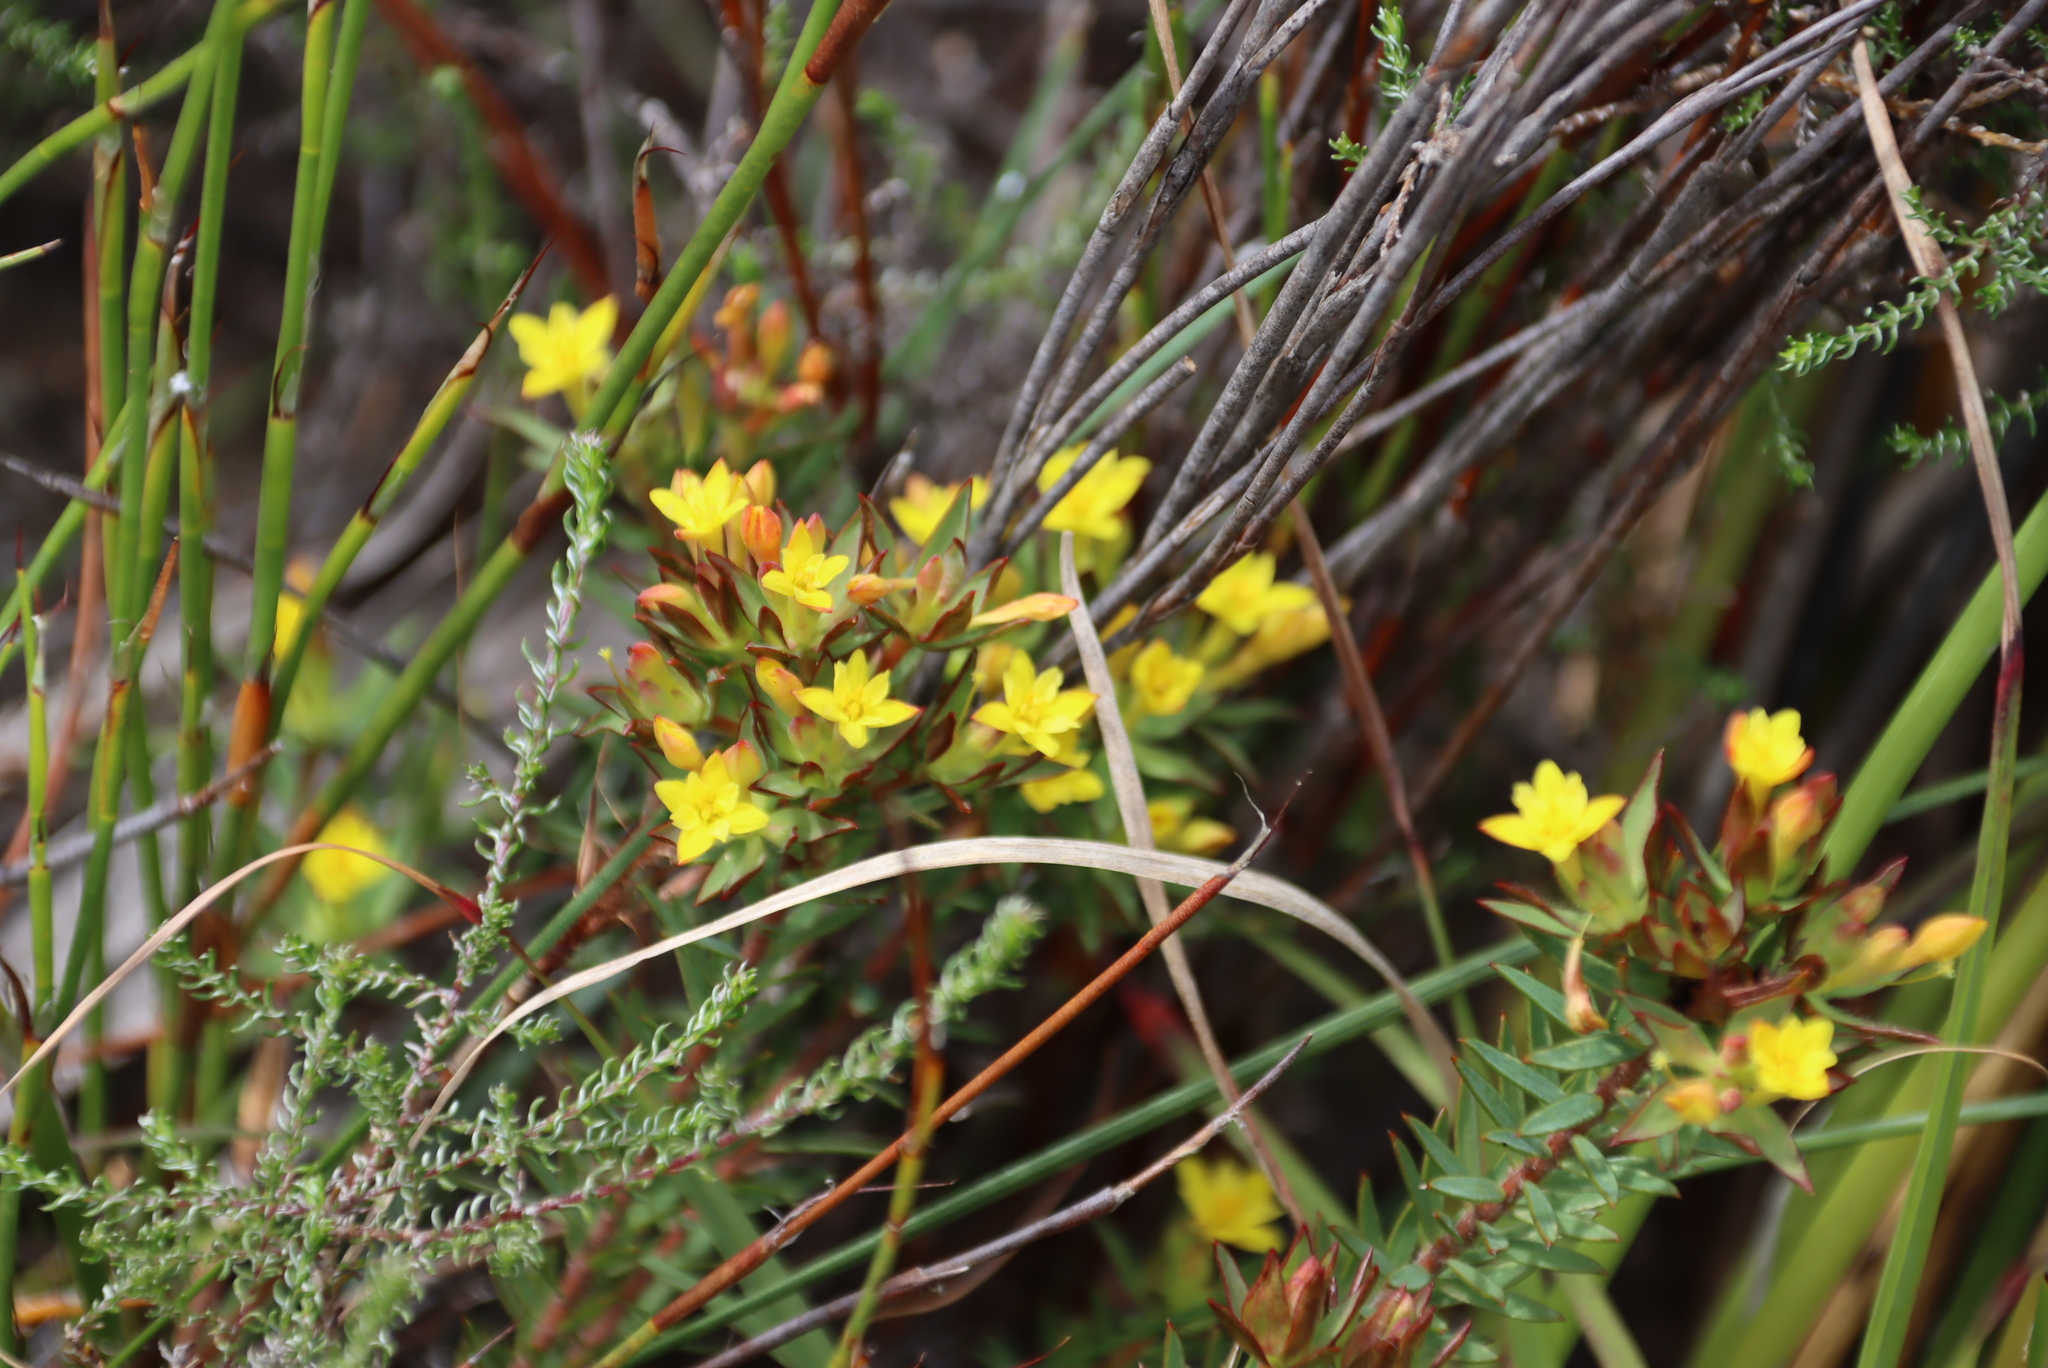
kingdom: Plantae
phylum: Tracheophyta
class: Magnoliopsida
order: Malvales
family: Thymelaeaceae
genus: Gnidia
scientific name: Gnidia juniperifolia
